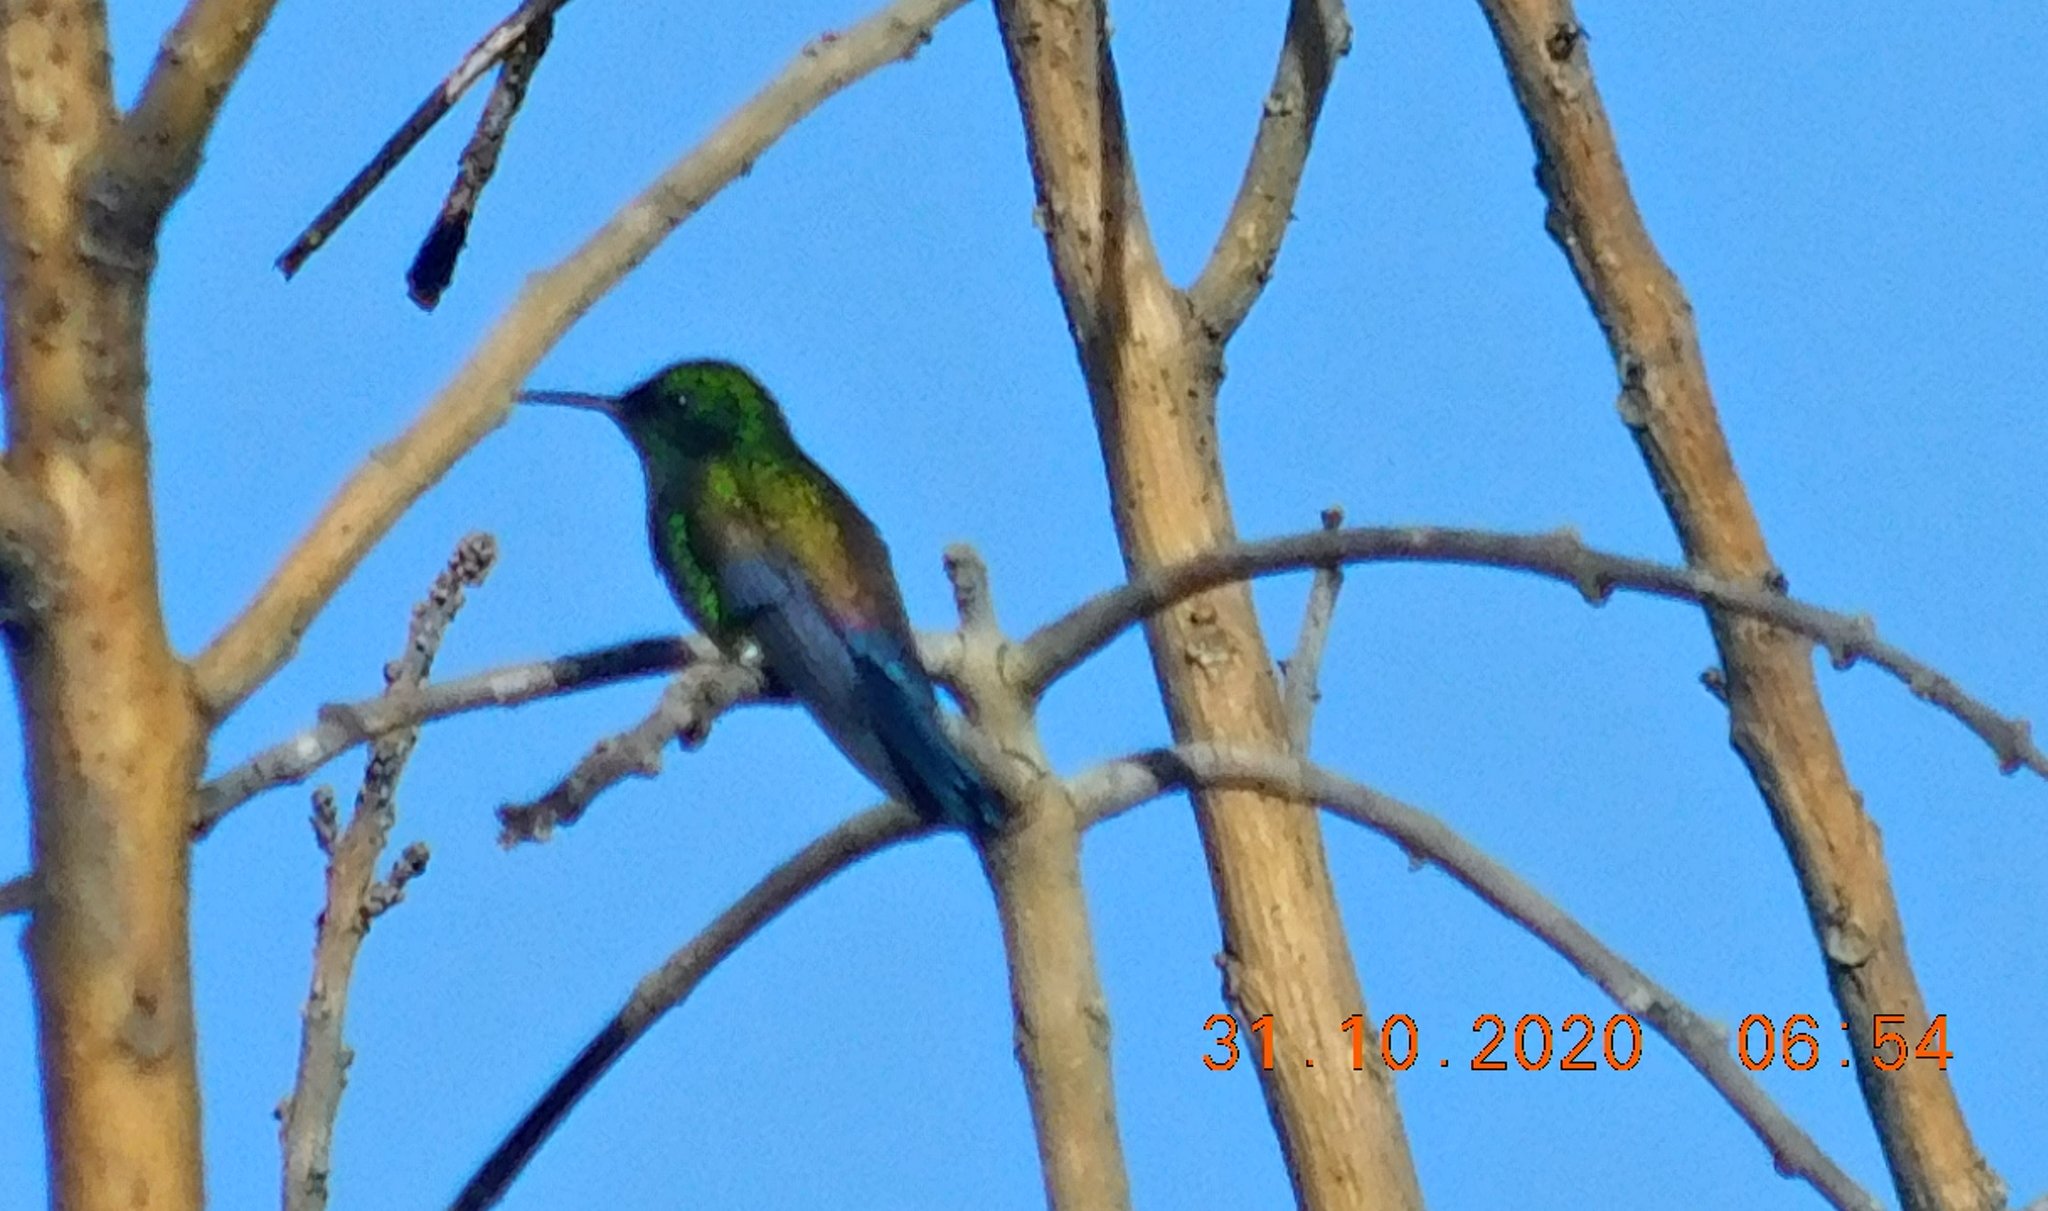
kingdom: Animalia
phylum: Chordata
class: Aves
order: Apodiformes
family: Trochilidae
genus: Saucerottia
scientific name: Saucerottia hoffmanni
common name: Blue-vented hummingbird
